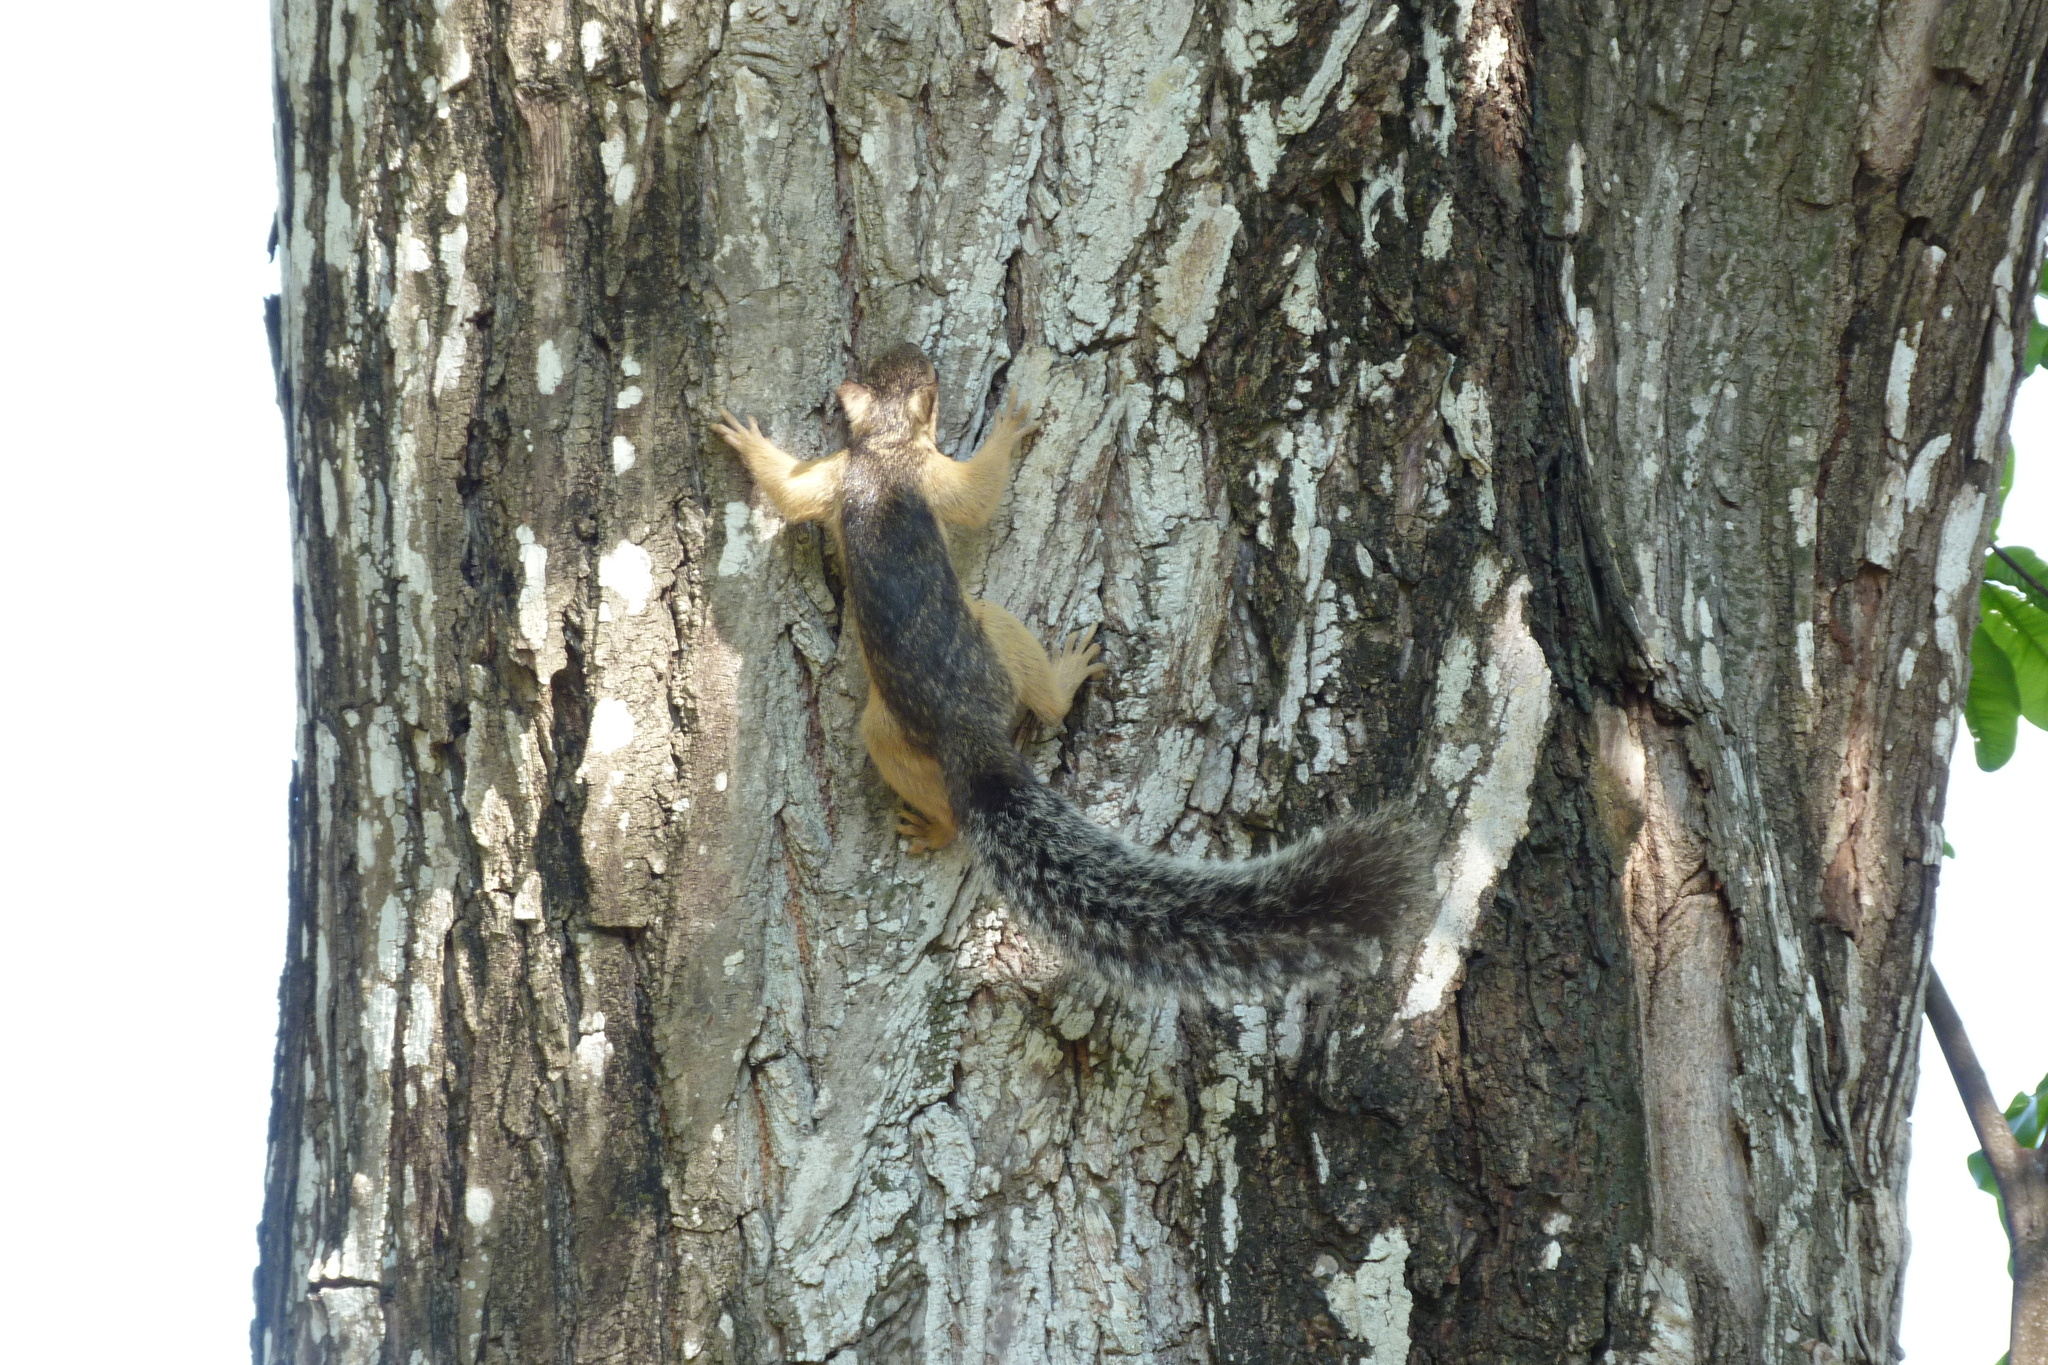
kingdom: Animalia
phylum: Chordata
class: Mammalia
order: Rodentia
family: Sciuridae
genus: Sciurus
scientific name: Sciurus variegatoides
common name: Variegated squirrel
